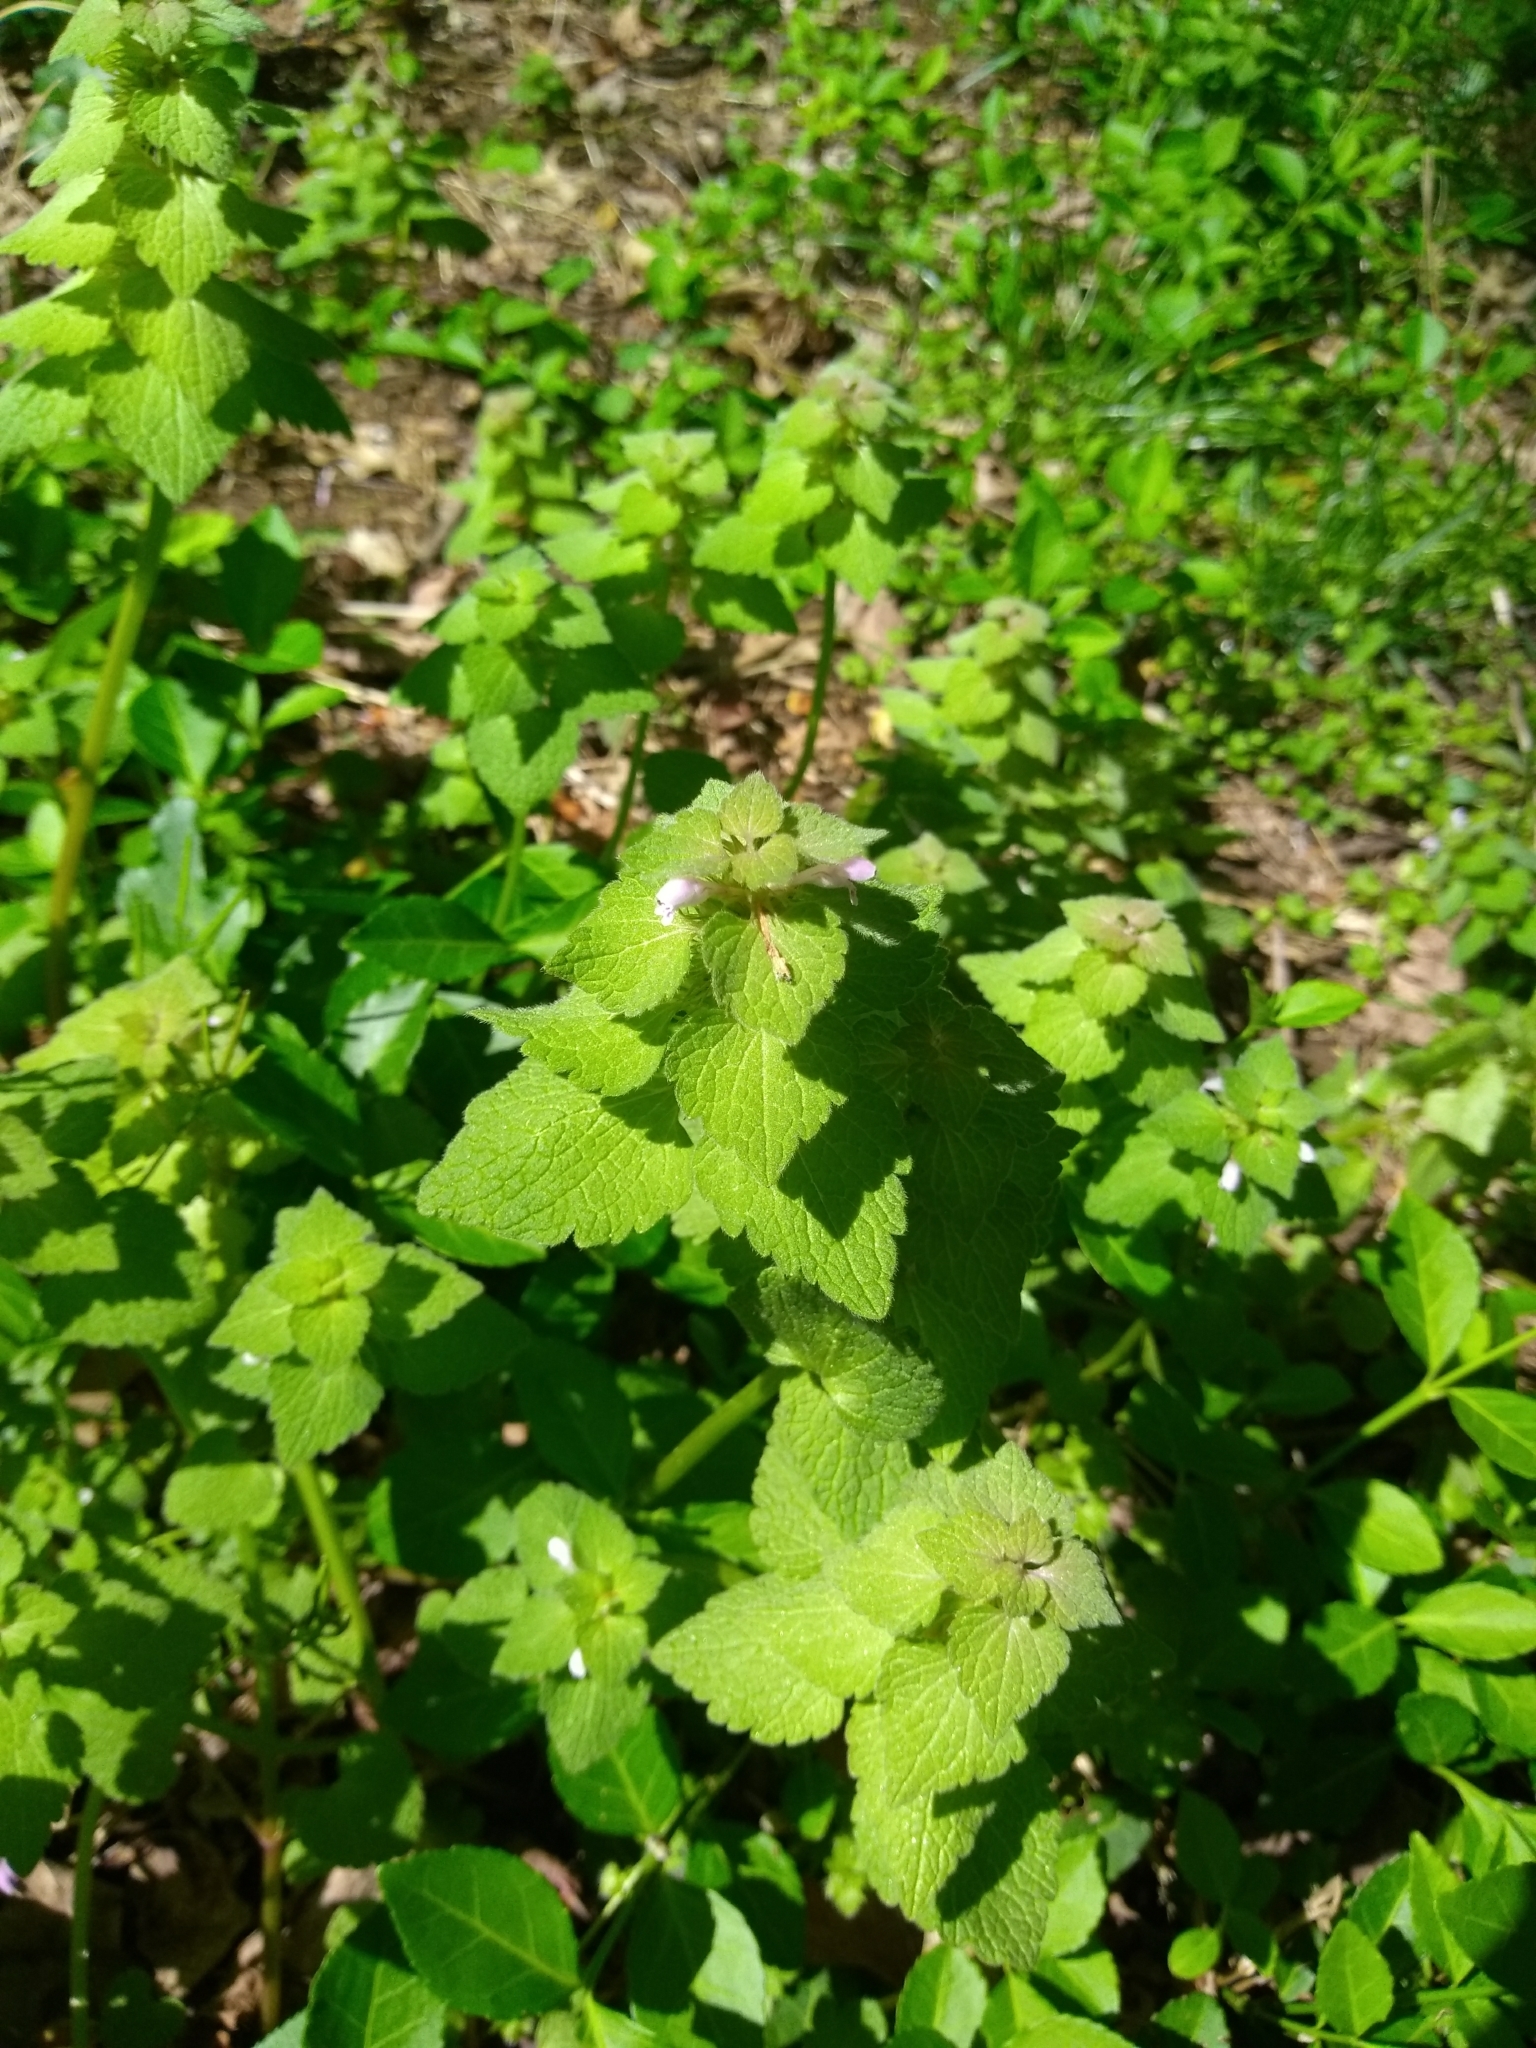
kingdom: Plantae
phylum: Tracheophyta
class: Magnoliopsida
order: Lamiales
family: Lamiaceae
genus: Lamium
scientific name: Lamium purpureum
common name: Red dead-nettle
